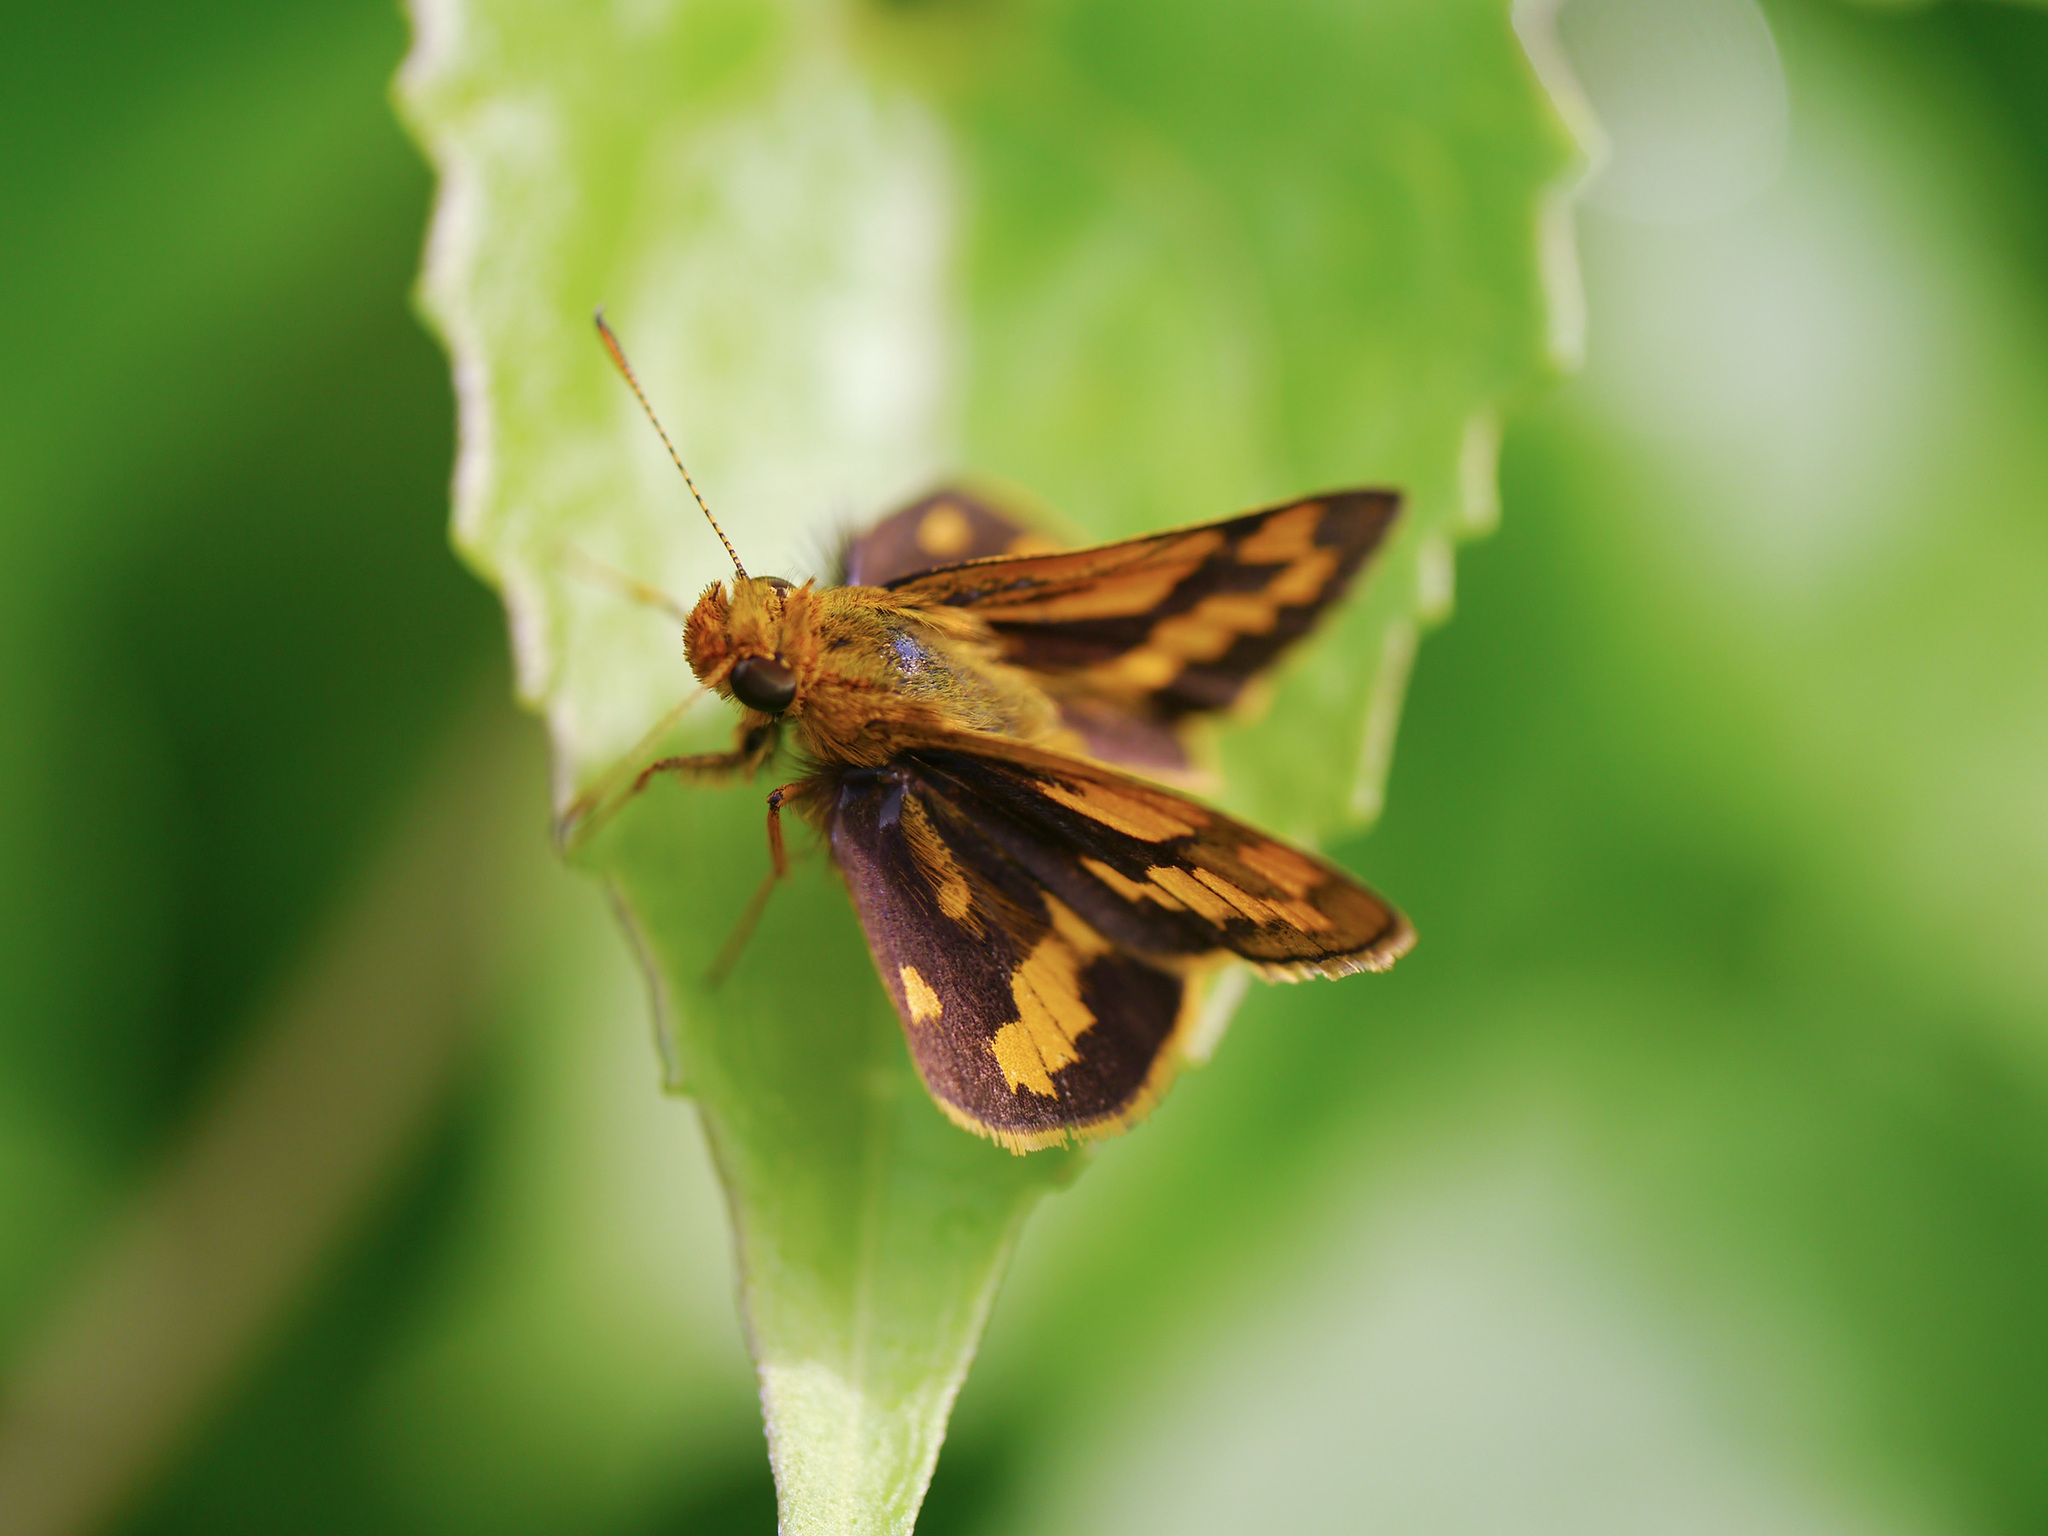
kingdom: Animalia
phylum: Arthropoda
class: Insecta
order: Lepidoptera
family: Hesperiidae
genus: Potanthus
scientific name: Potanthus omaha
